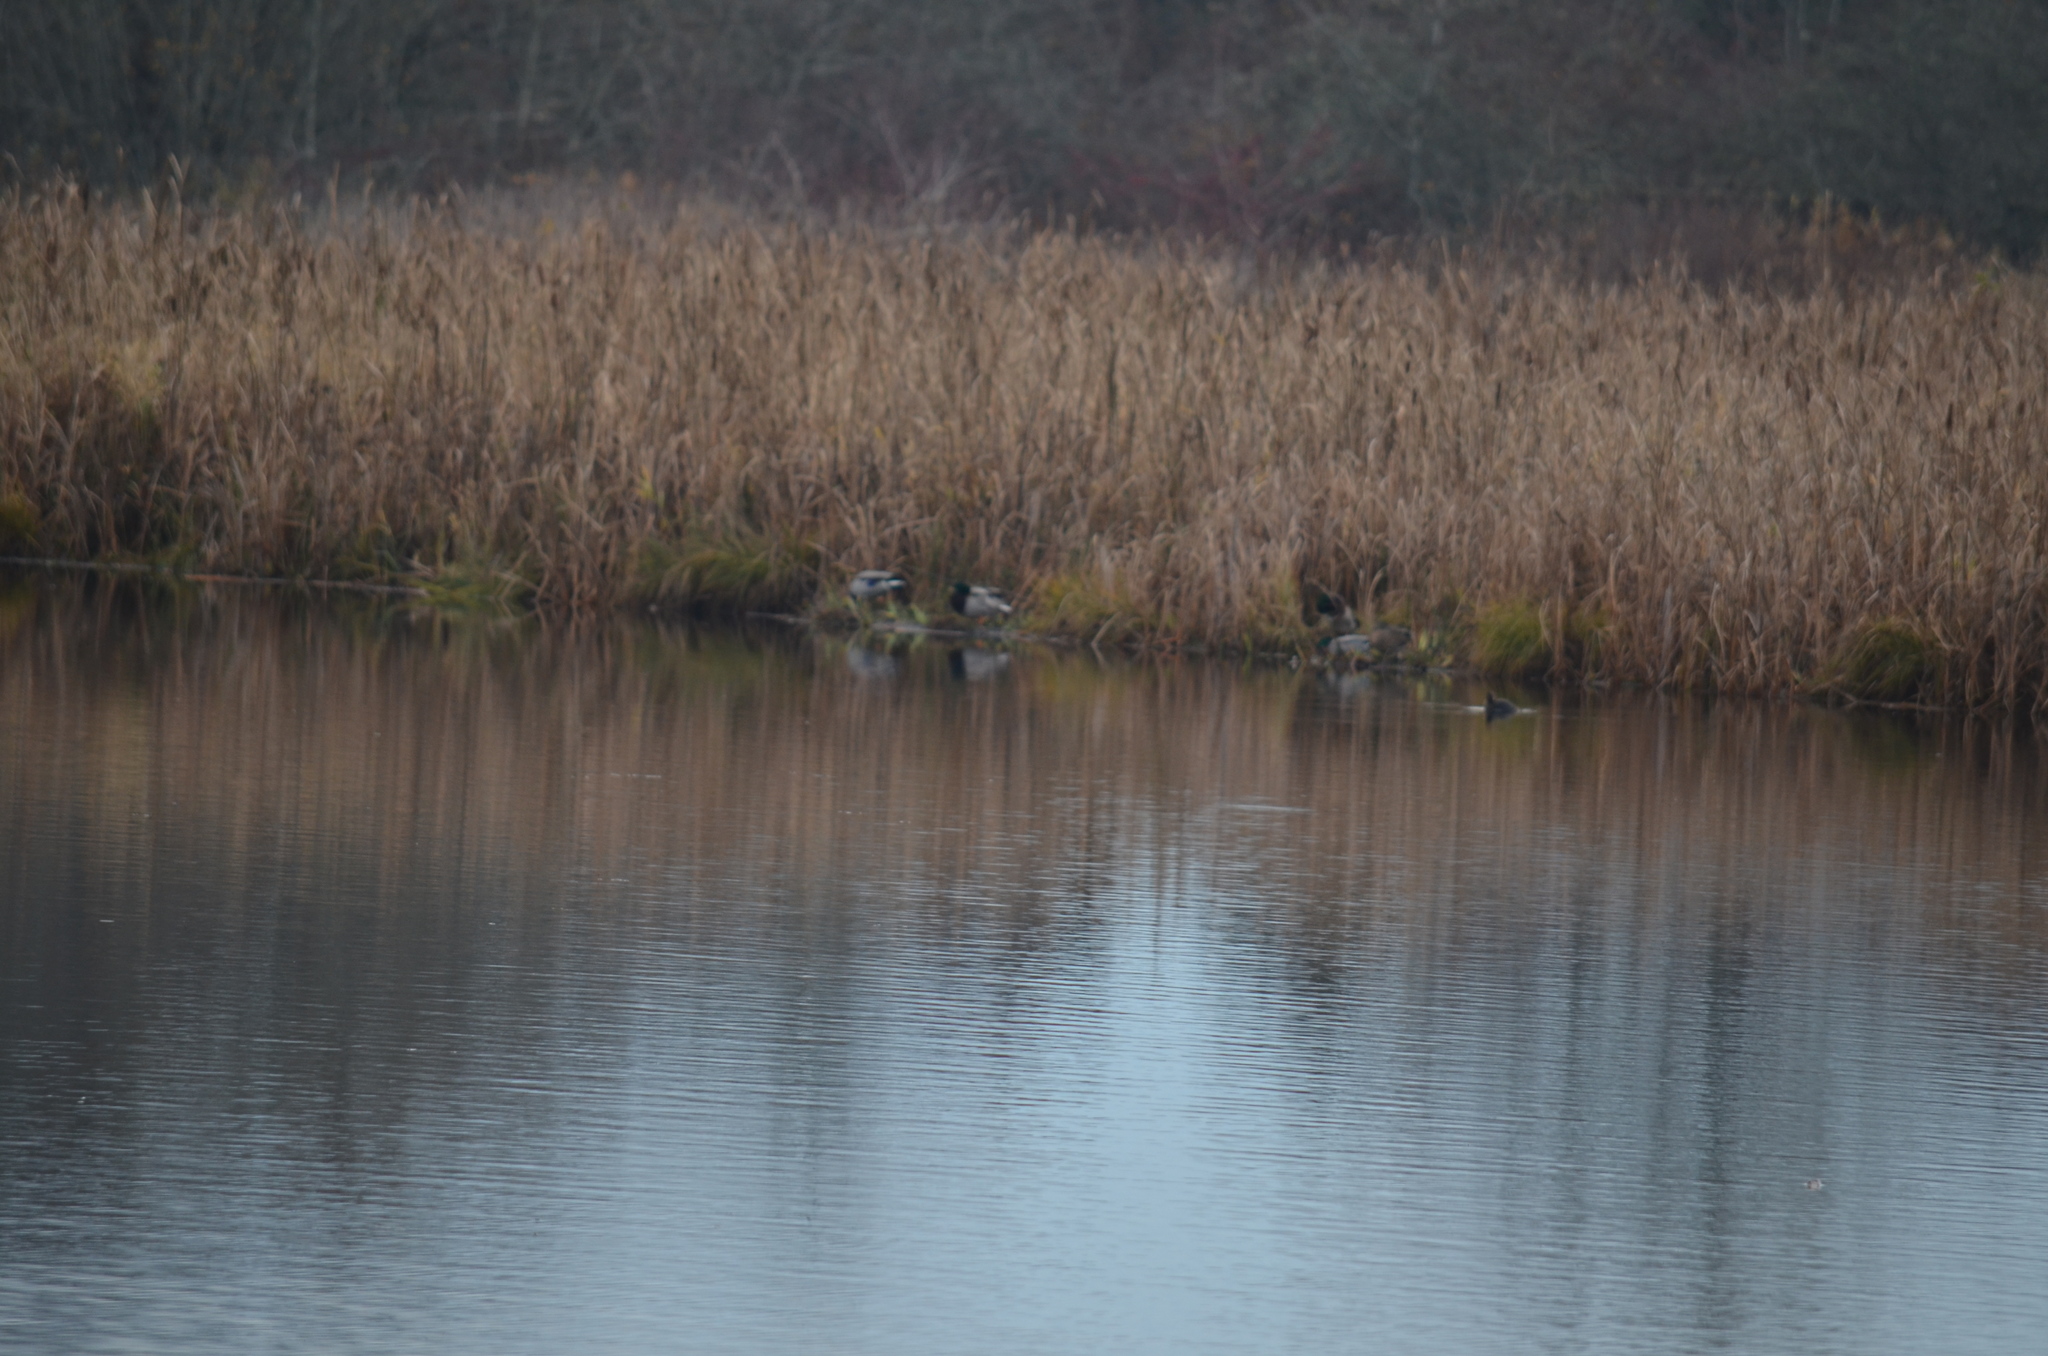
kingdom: Animalia
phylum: Chordata
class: Aves
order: Anseriformes
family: Anatidae
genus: Anas
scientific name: Anas platyrhynchos
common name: Mallard
